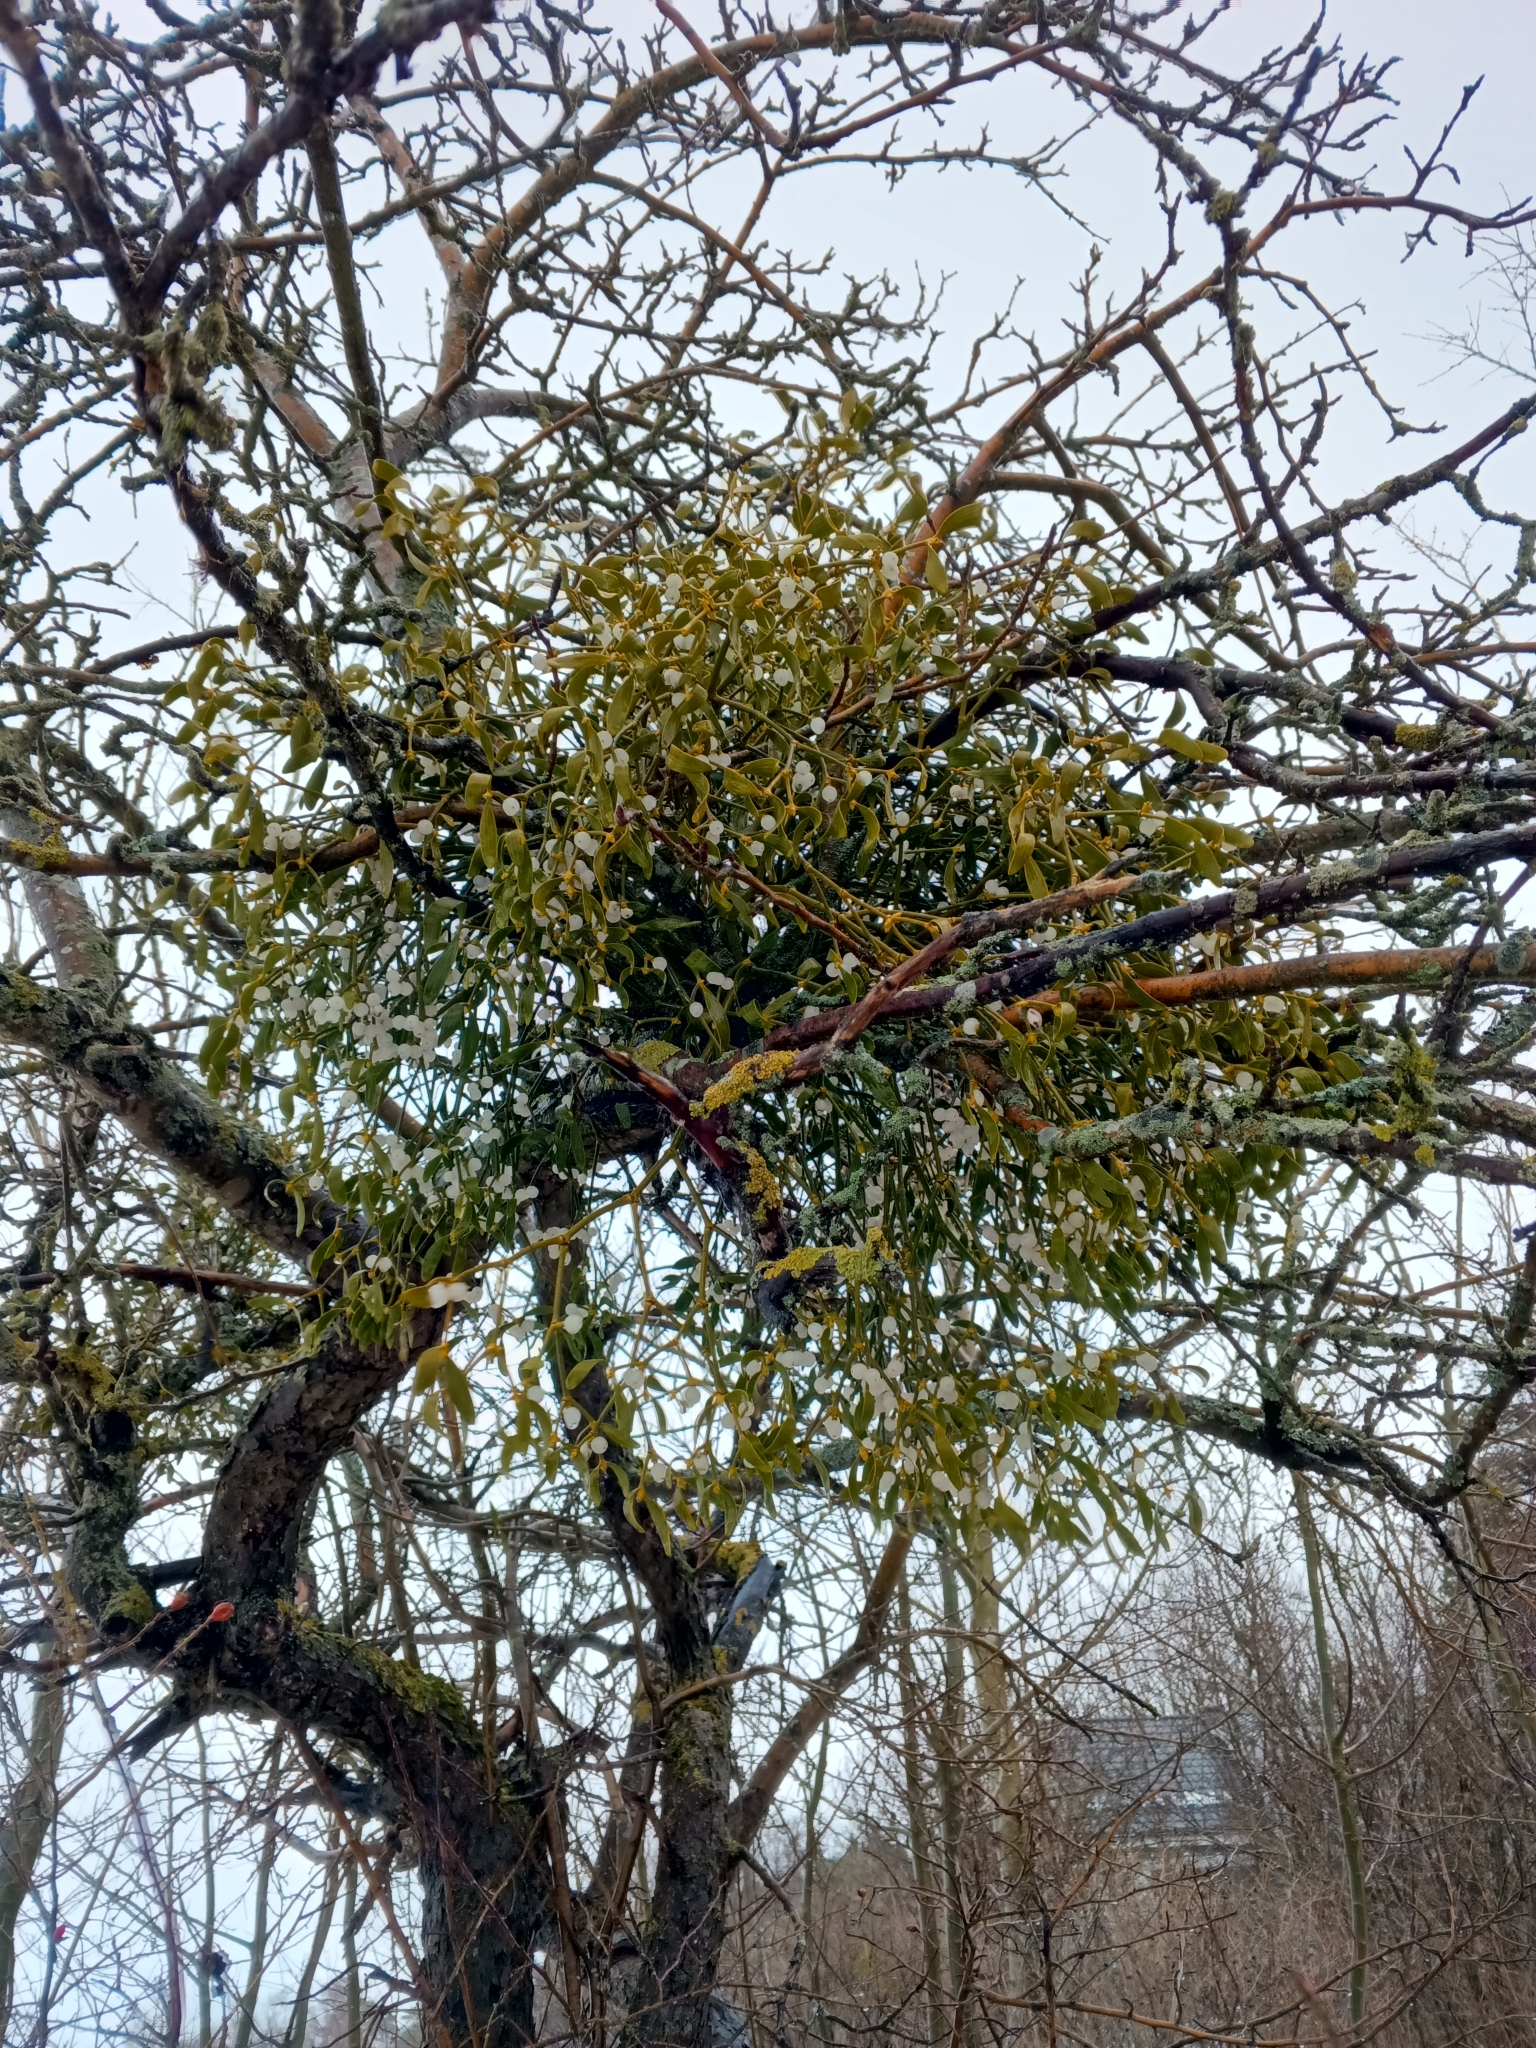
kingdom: Plantae
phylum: Tracheophyta
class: Magnoliopsida
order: Santalales
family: Viscaceae
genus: Viscum
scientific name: Viscum album
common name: Mistletoe
